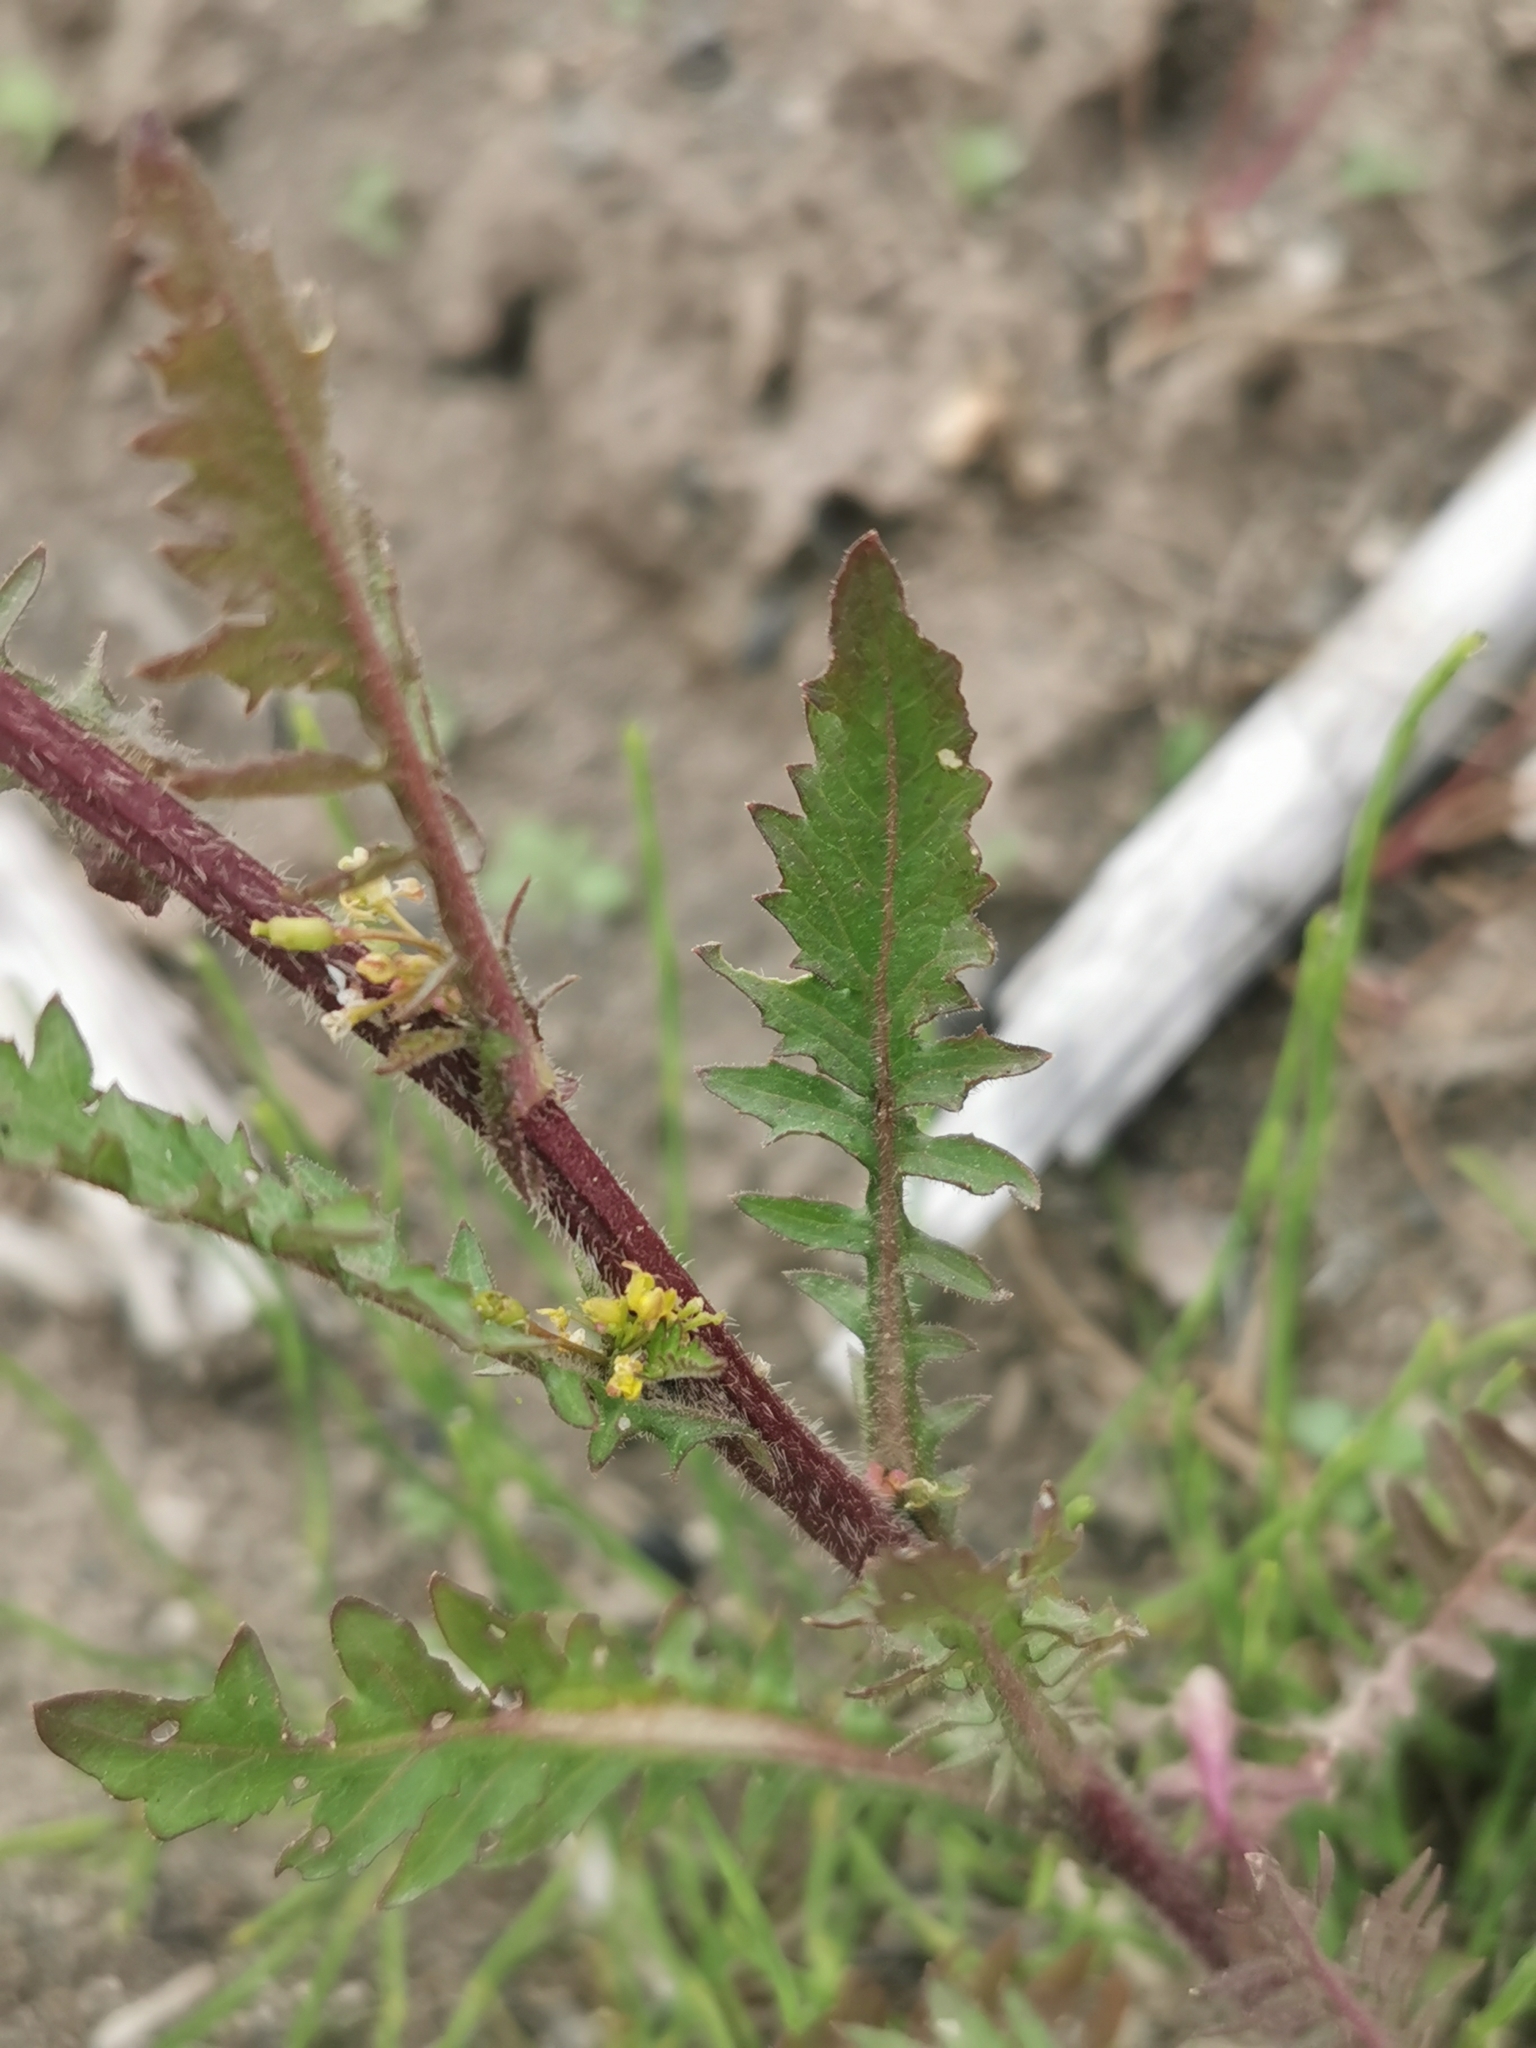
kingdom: Plantae
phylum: Tracheophyta
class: Magnoliopsida
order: Brassicales
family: Brassicaceae
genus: Rorippa
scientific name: Rorippa palustris
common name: Marsh yellow-cress
